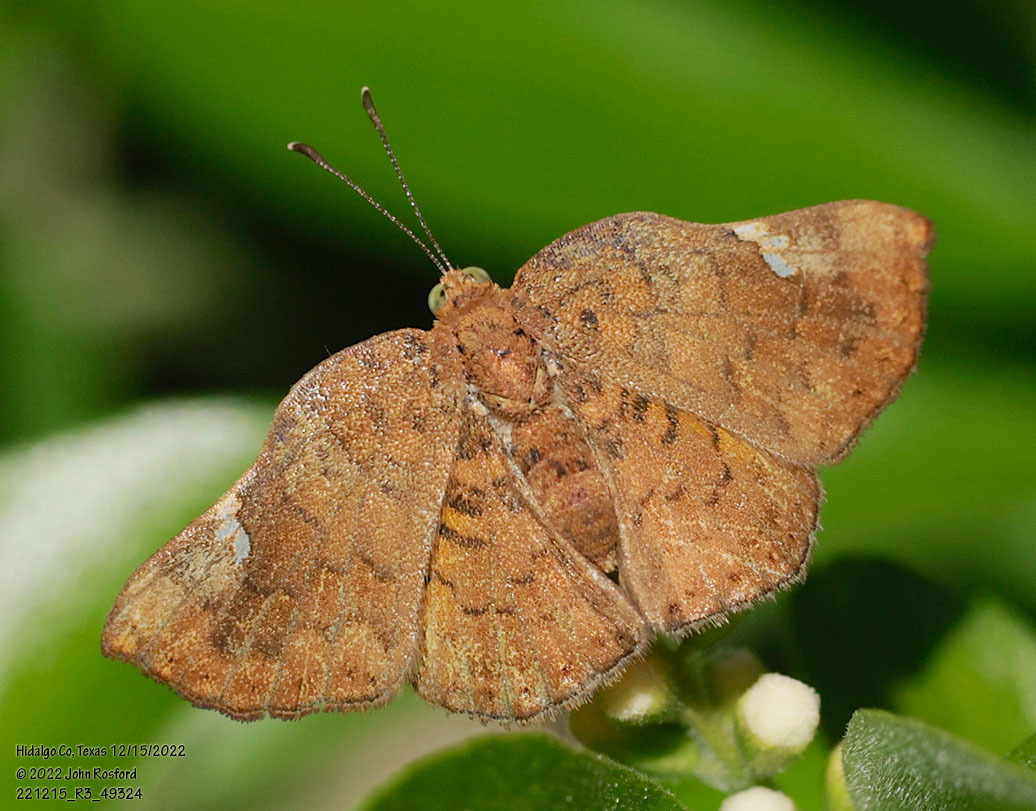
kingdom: Animalia
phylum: Arthropoda
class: Insecta
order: Lepidoptera
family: Riodinidae
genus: Curvie
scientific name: Curvie emesia
